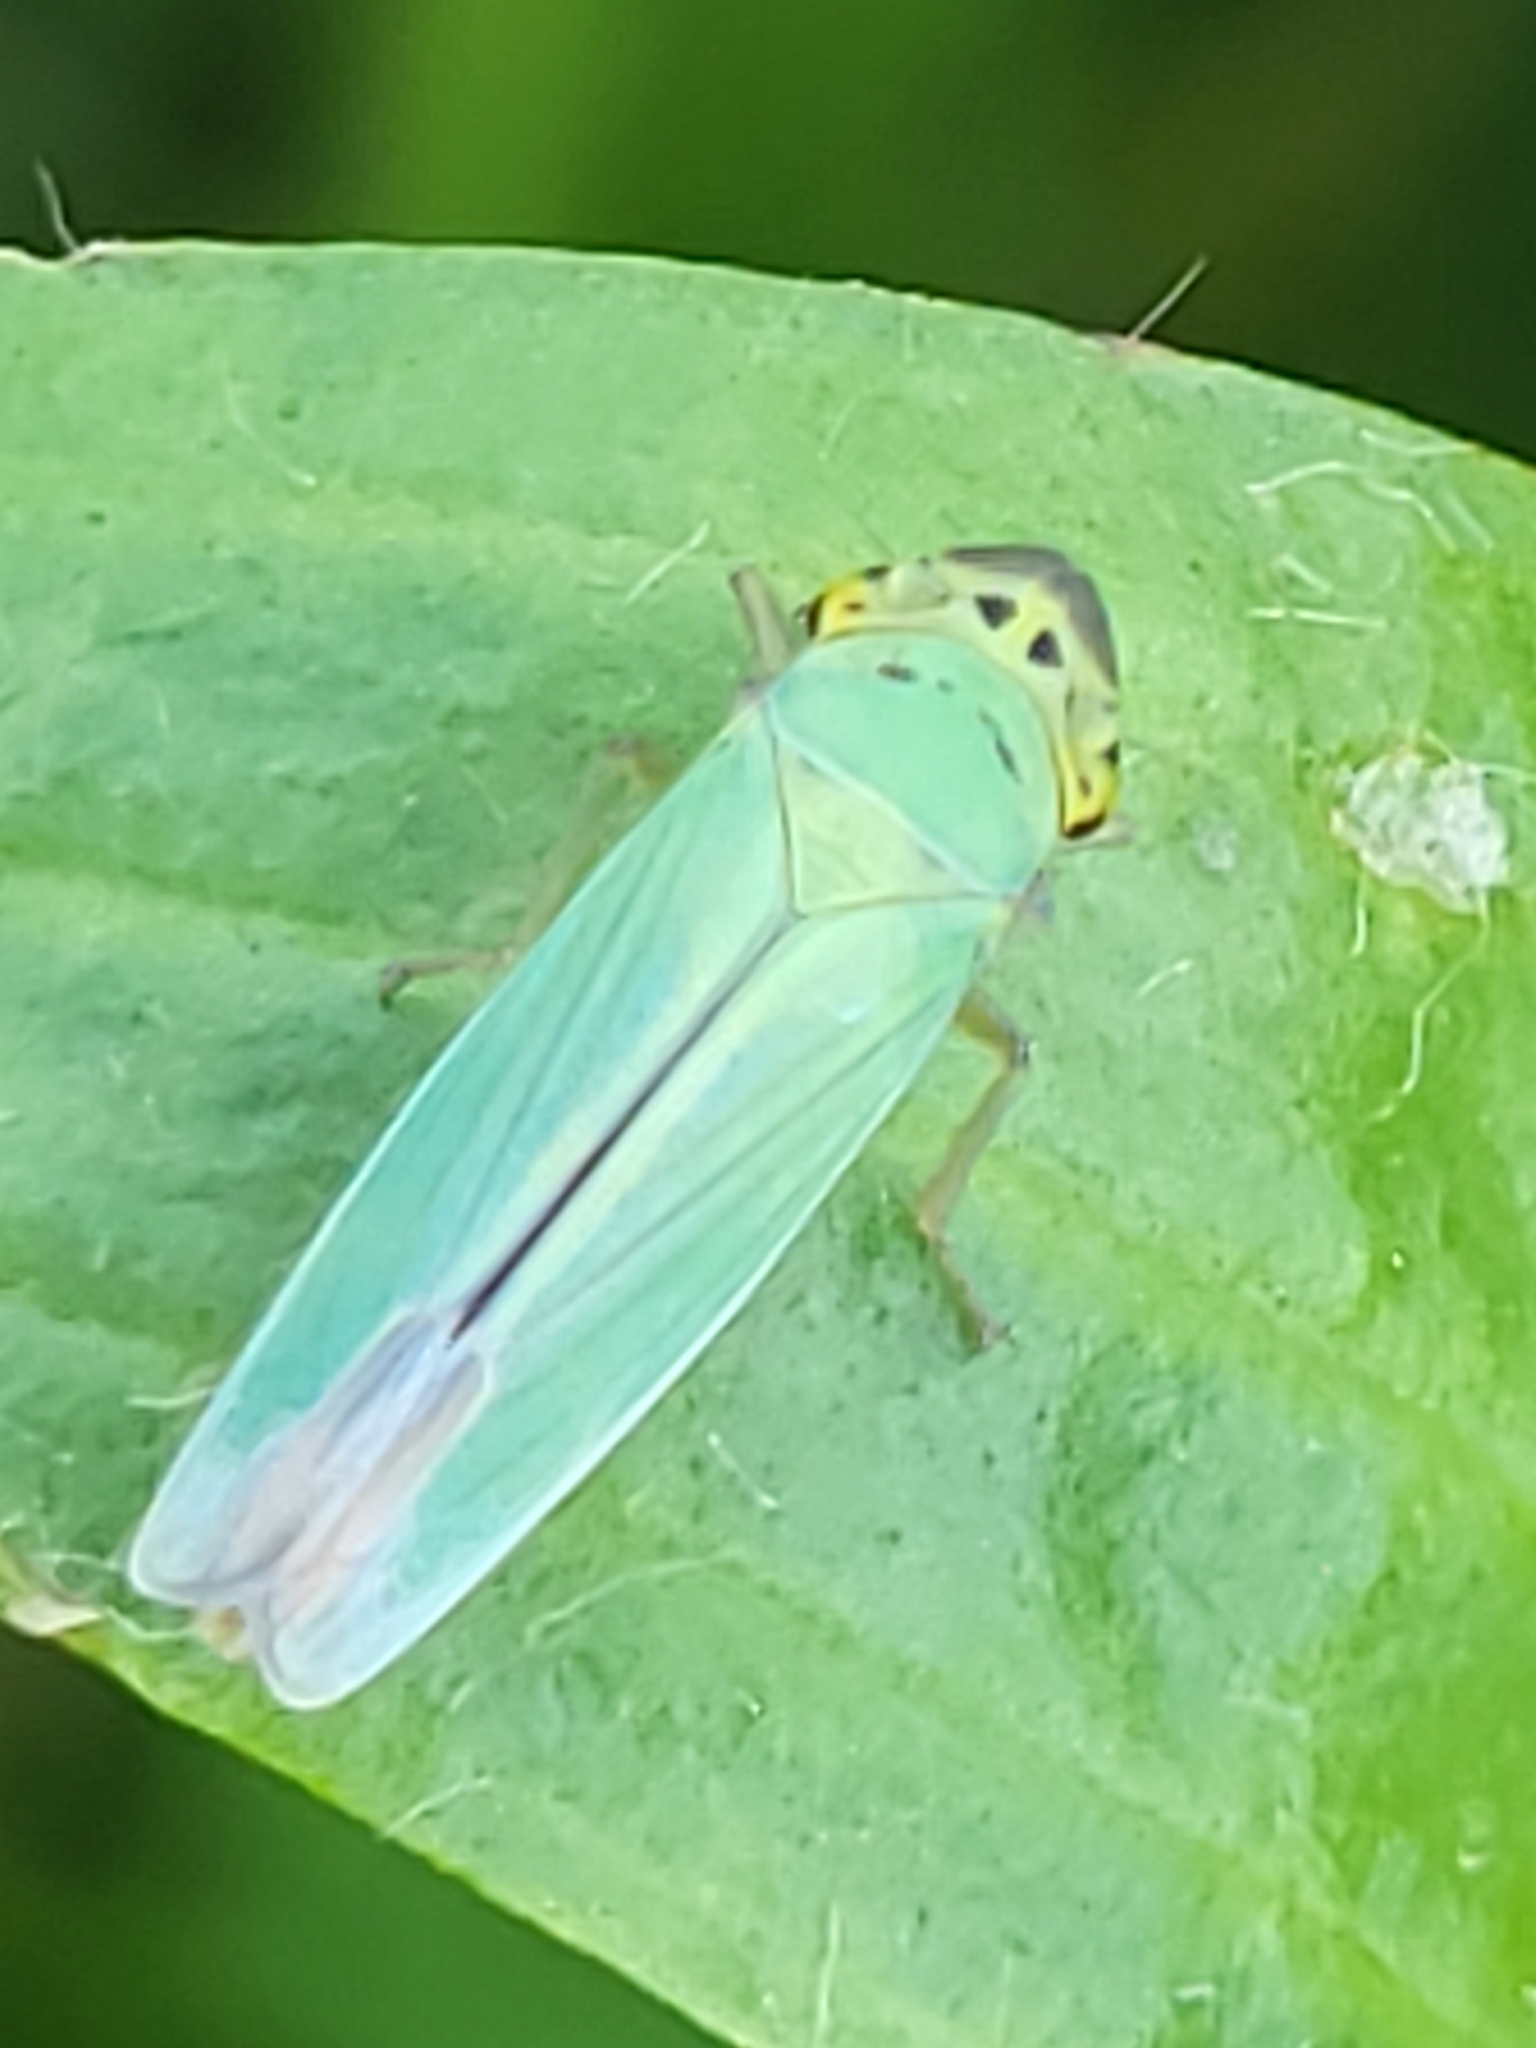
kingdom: Animalia
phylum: Arthropoda
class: Insecta
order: Hemiptera
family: Cicadellidae
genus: Cicadella
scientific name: Cicadella viridis
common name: Leafhopper
